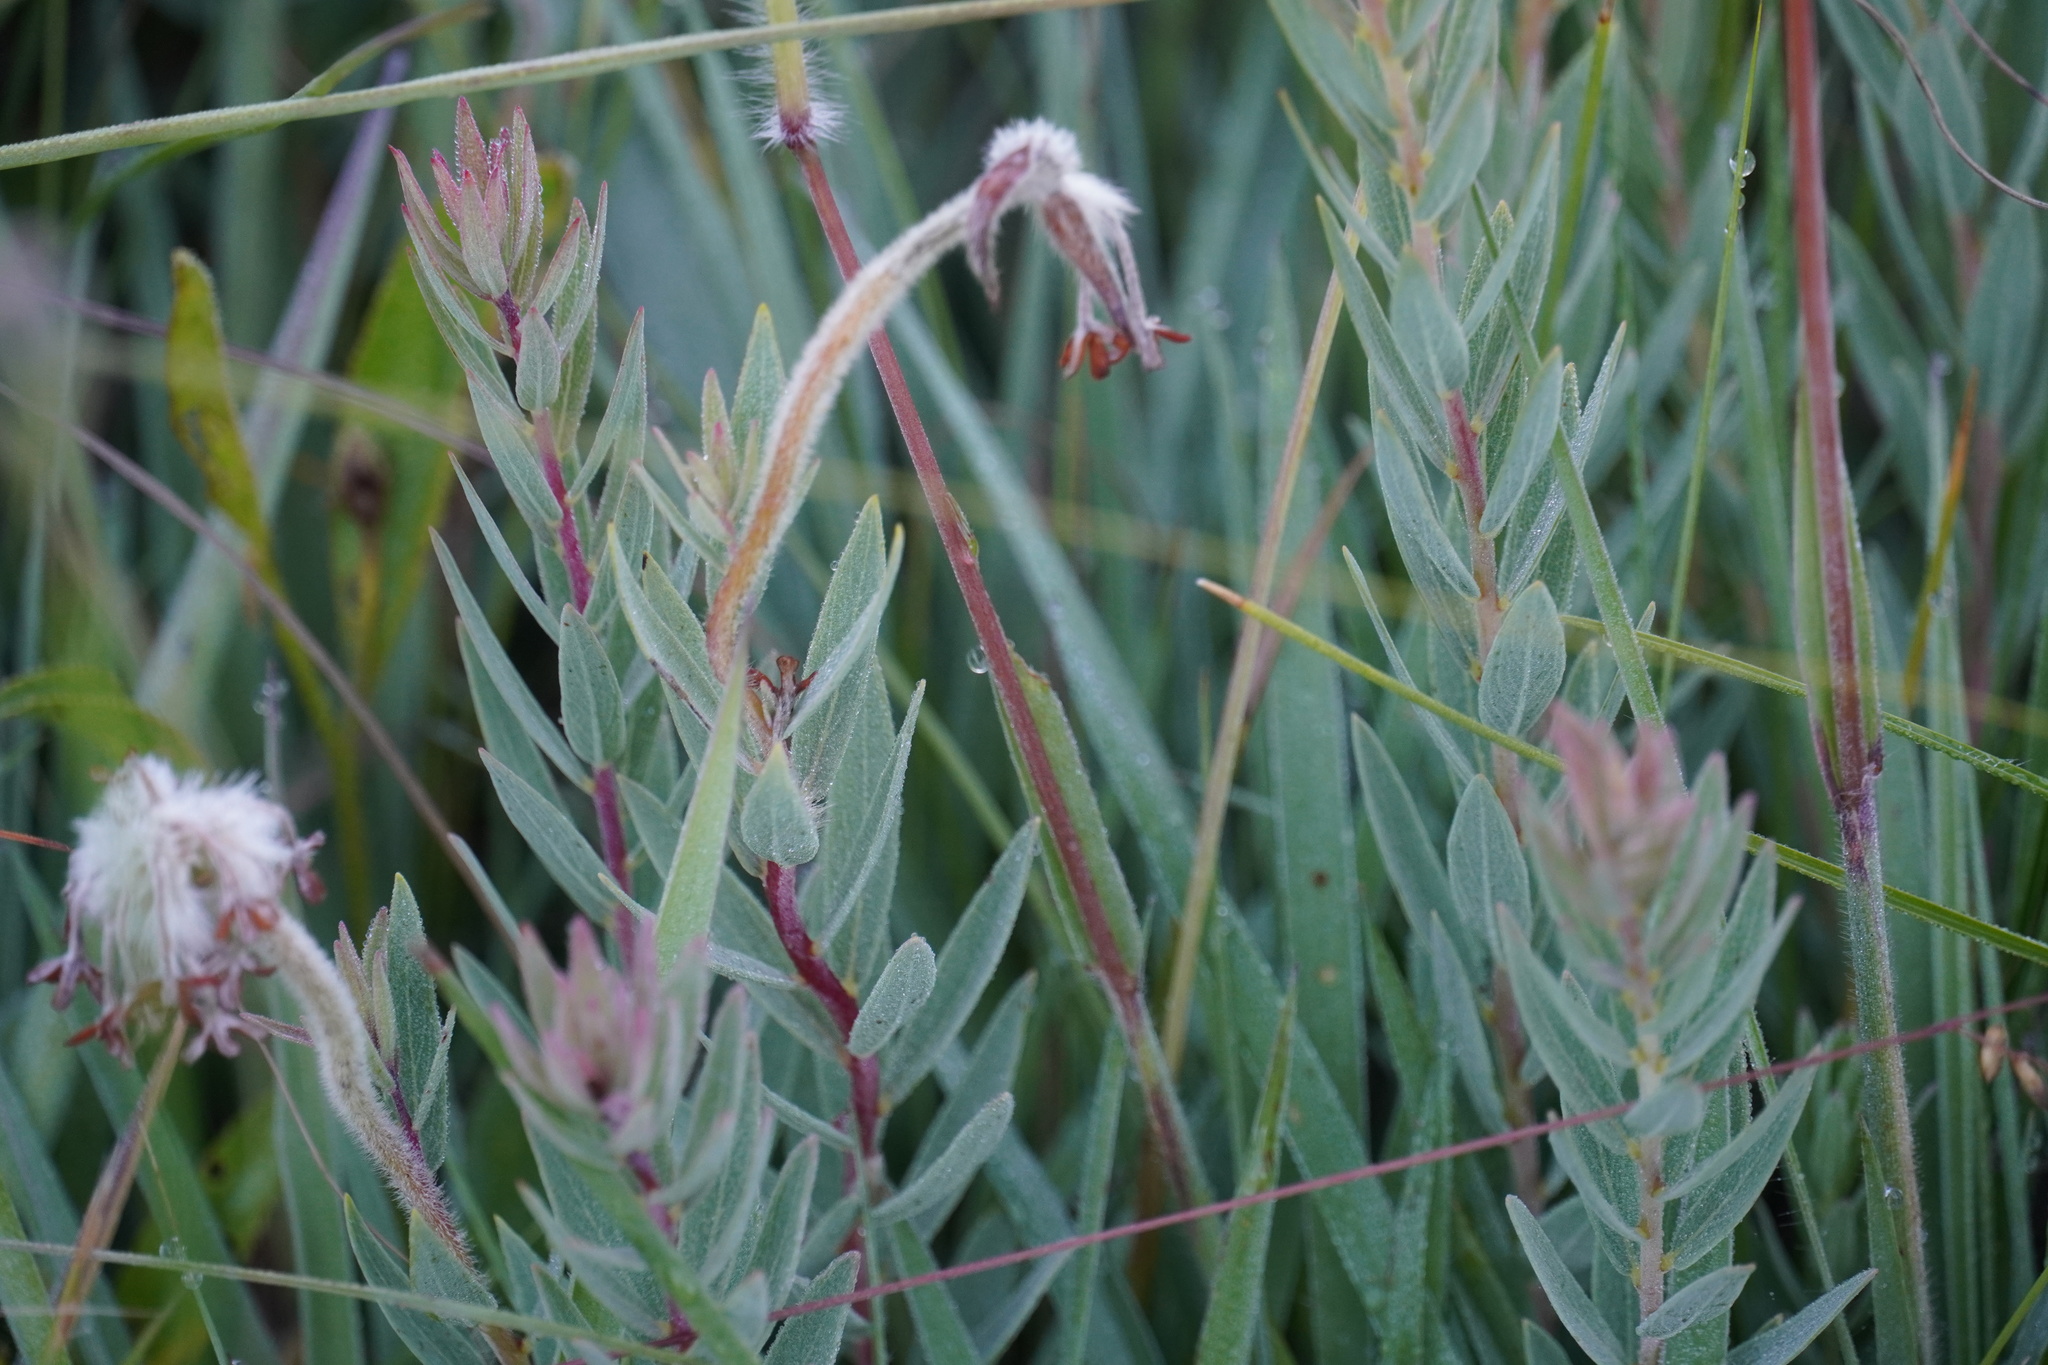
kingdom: Plantae
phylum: Tracheophyta
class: Magnoliopsida
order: Malvales
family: Thymelaeaceae
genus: Gnidia
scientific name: Gnidia kraussiana
